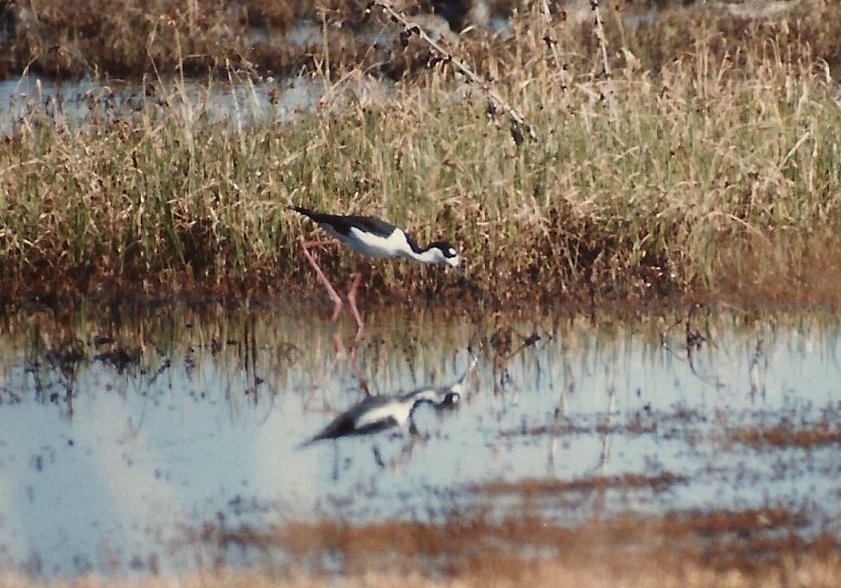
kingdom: Animalia
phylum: Chordata
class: Aves
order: Charadriiformes
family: Recurvirostridae
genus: Himantopus
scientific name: Himantopus mexicanus
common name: Black-necked stilt
